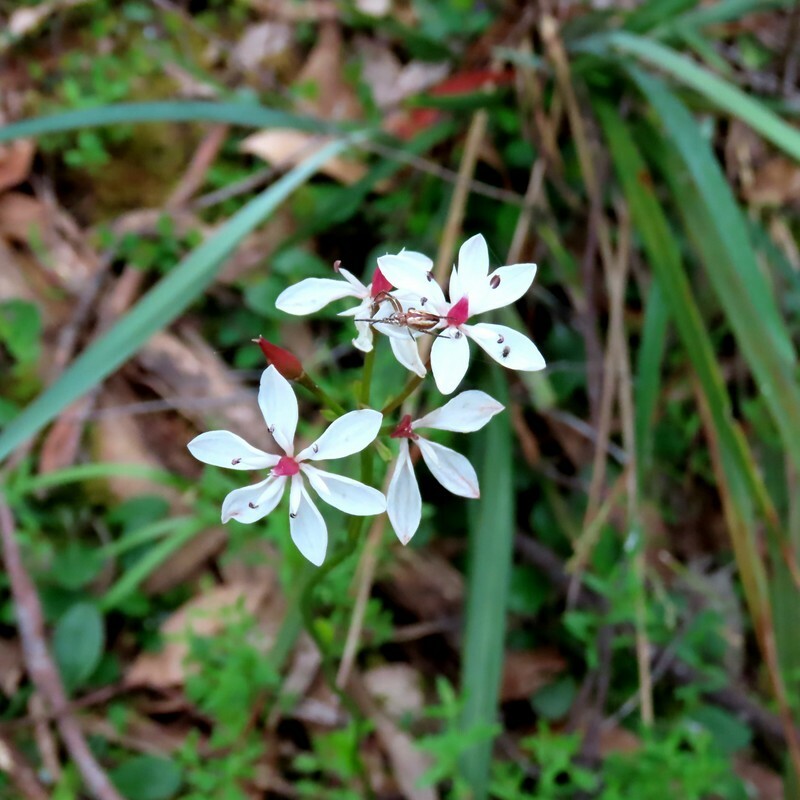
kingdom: Plantae
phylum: Tracheophyta
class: Liliopsida
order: Liliales
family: Colchicaceae
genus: Burchardia
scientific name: Burchardia umbellata
